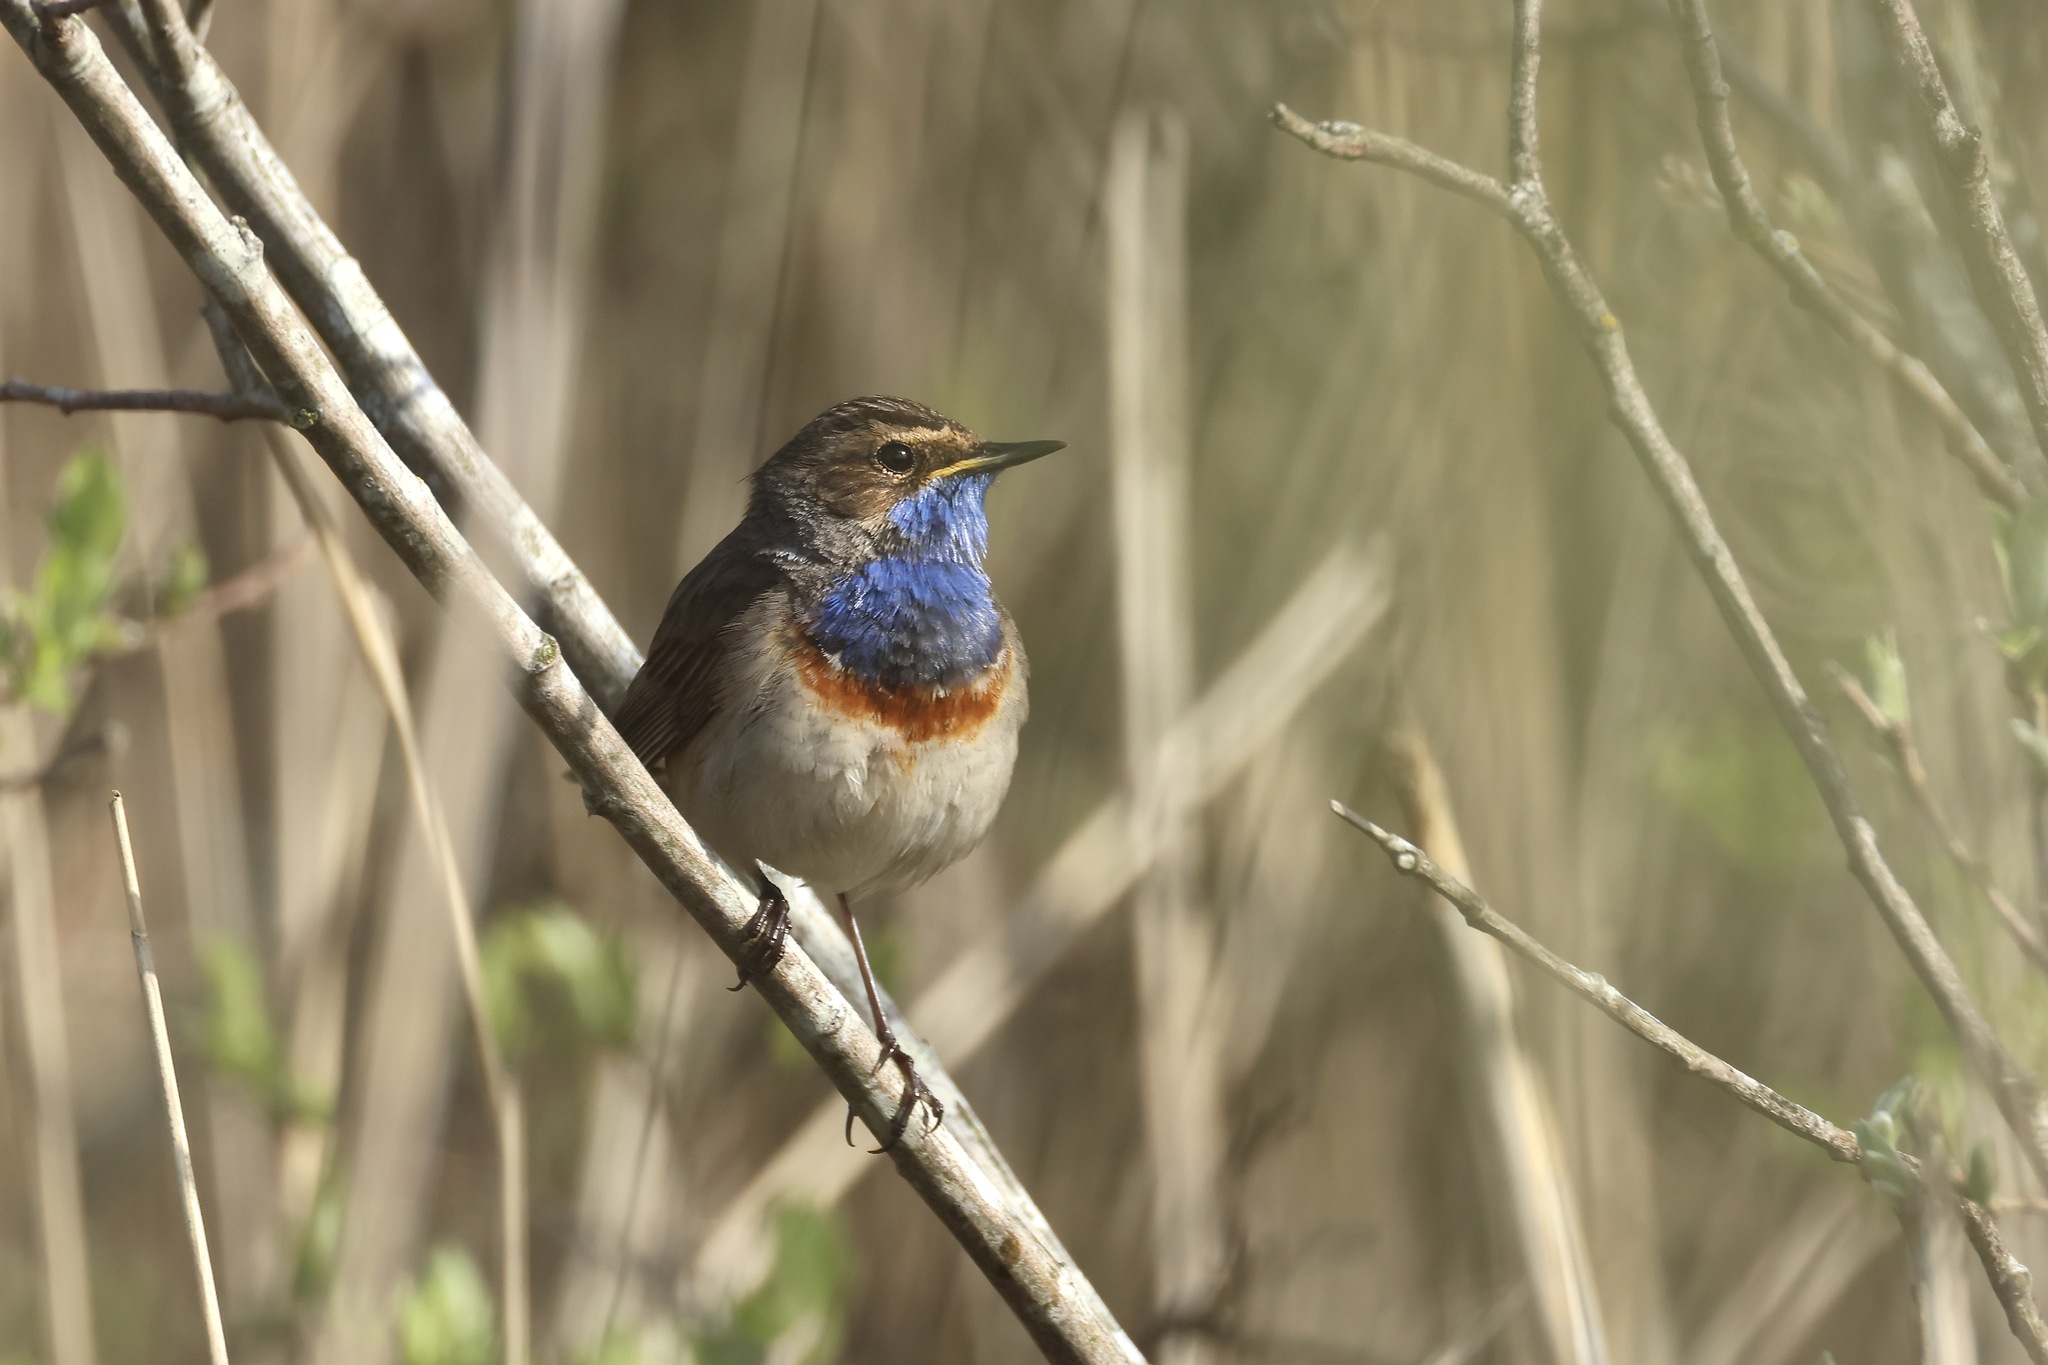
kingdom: Animalia
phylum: Chordata
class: Aves
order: Passeriformes
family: Muscicapidae
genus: Luscinia
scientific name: Luscinia svecica
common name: Bluethroat
